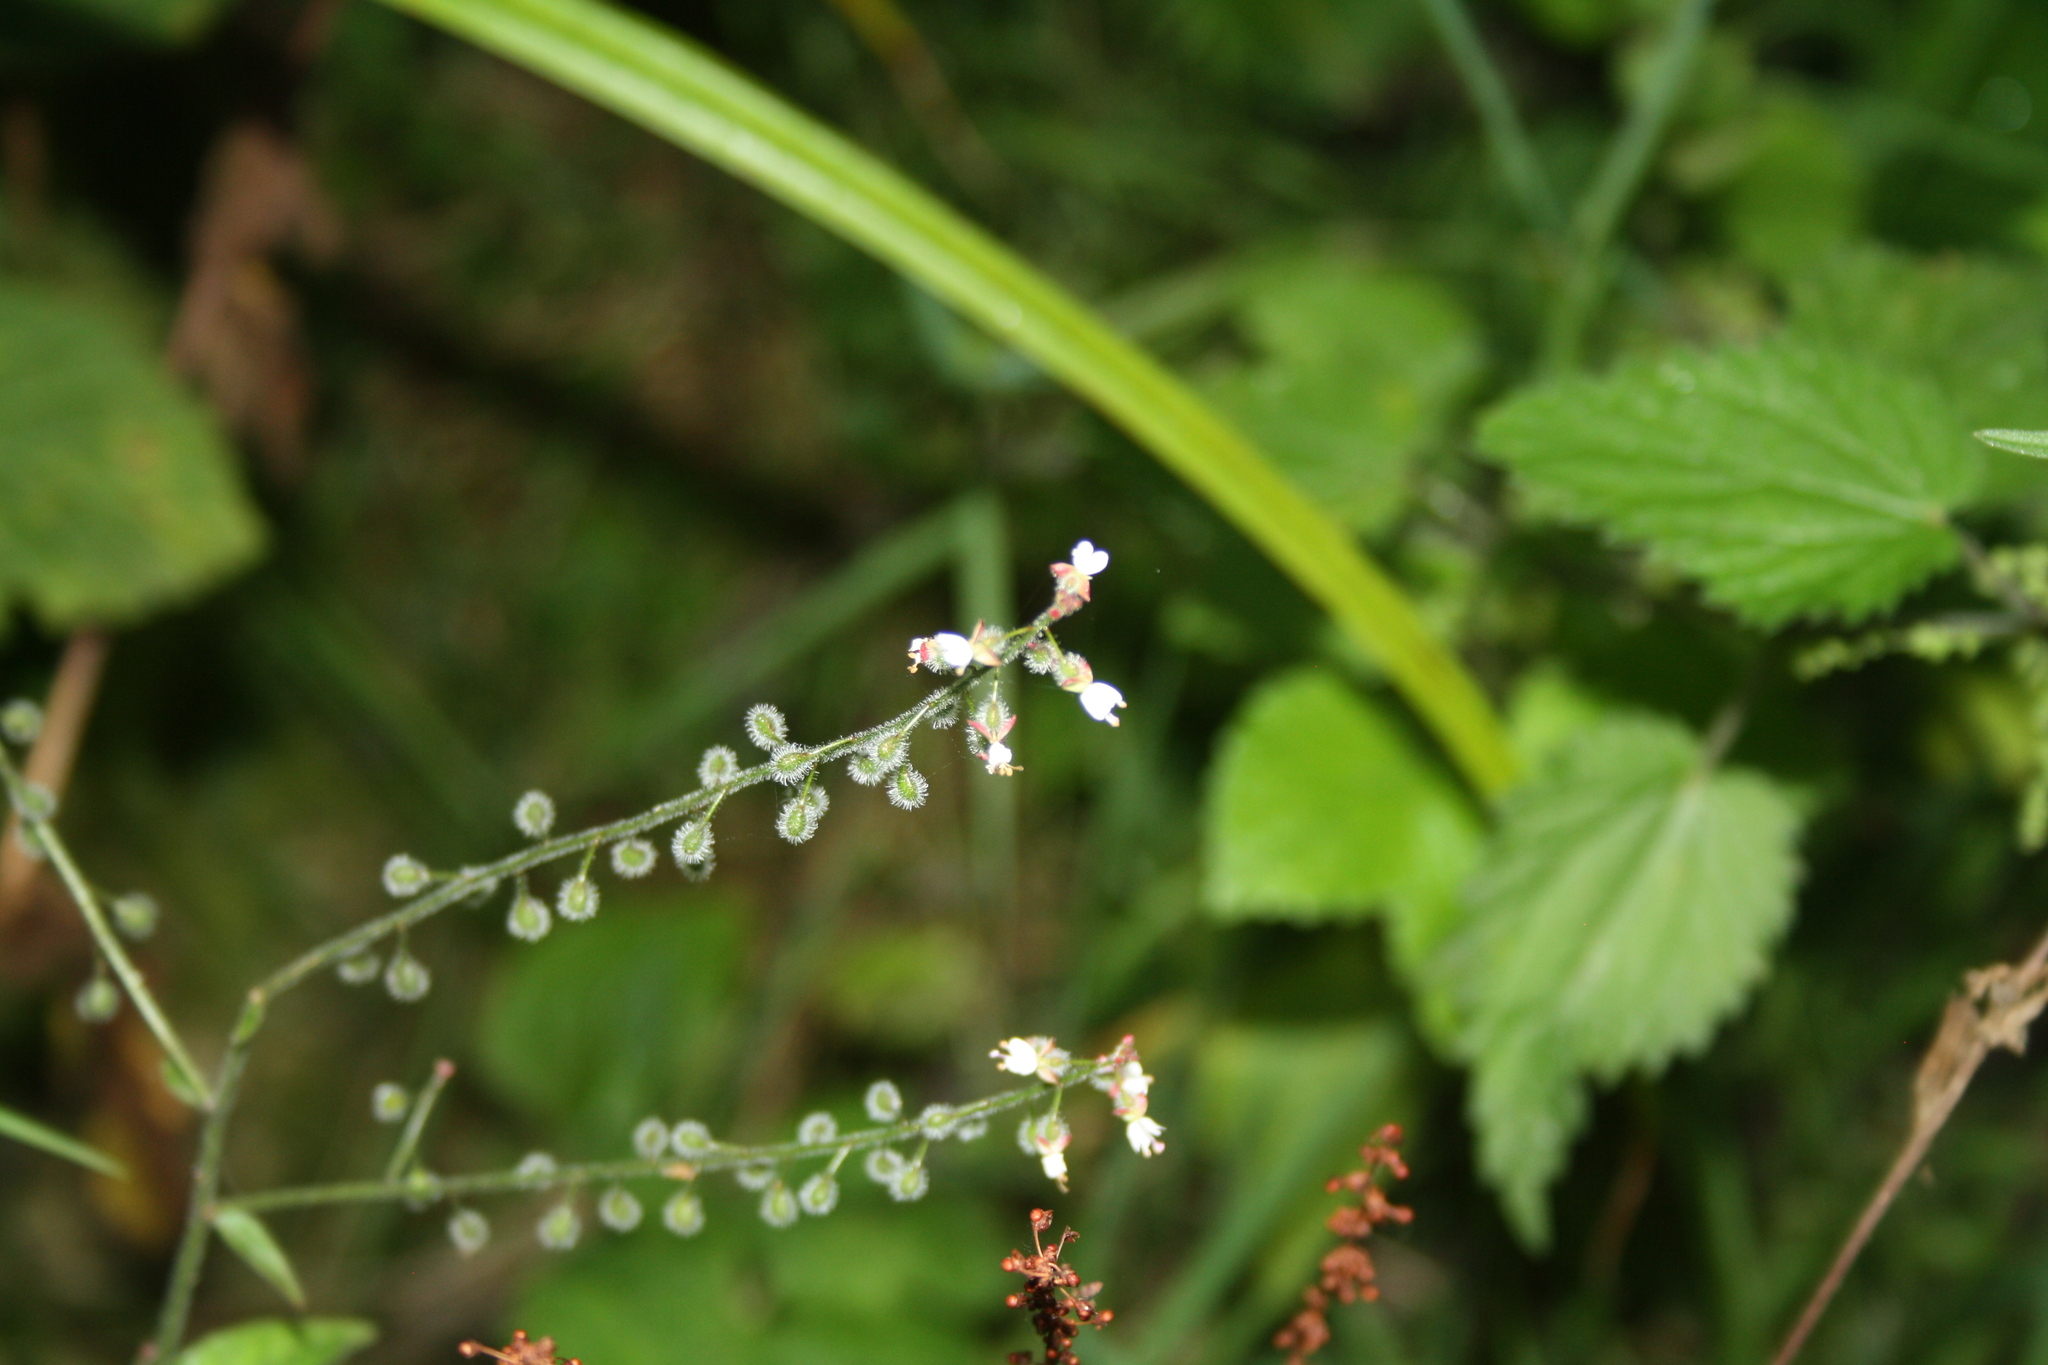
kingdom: Plantae
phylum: Tracheophyta
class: Magnoliopsida
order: Myrtales
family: Onagraceae
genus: Circaea
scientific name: Circaea lutetiana
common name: Enchanter's-nightshade
